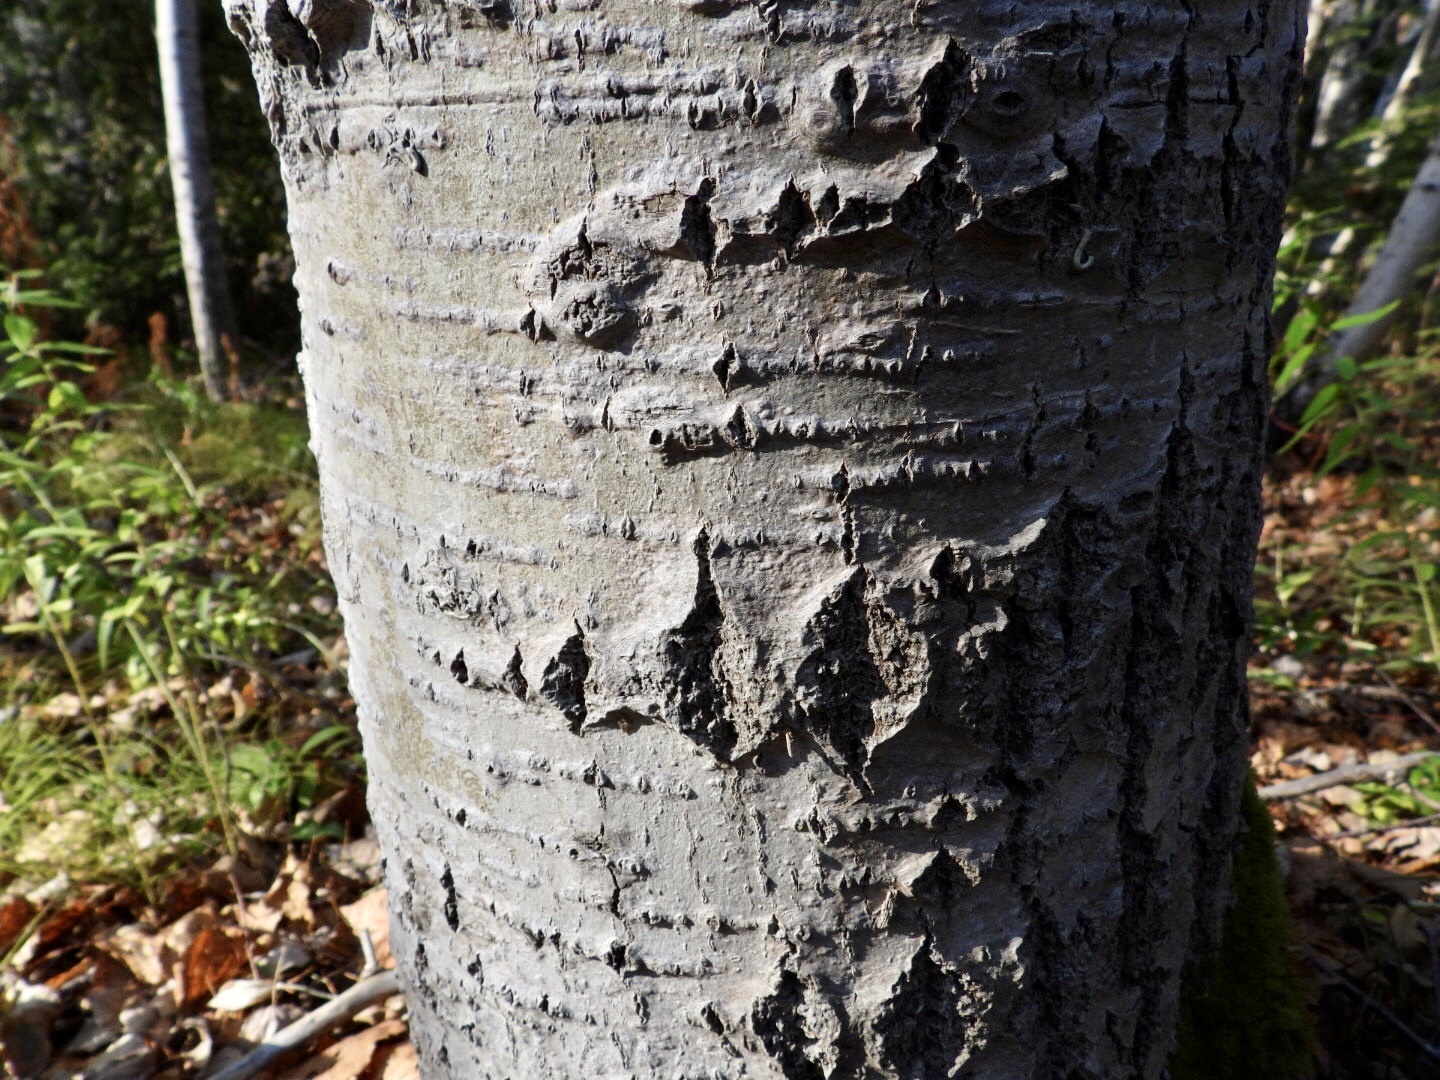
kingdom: Plantae
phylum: Tracheophyta
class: Magnoliopsida
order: Malpighiales
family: Salicaceae
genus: Populus
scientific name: Populus tremuloides
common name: Quaking aspen
